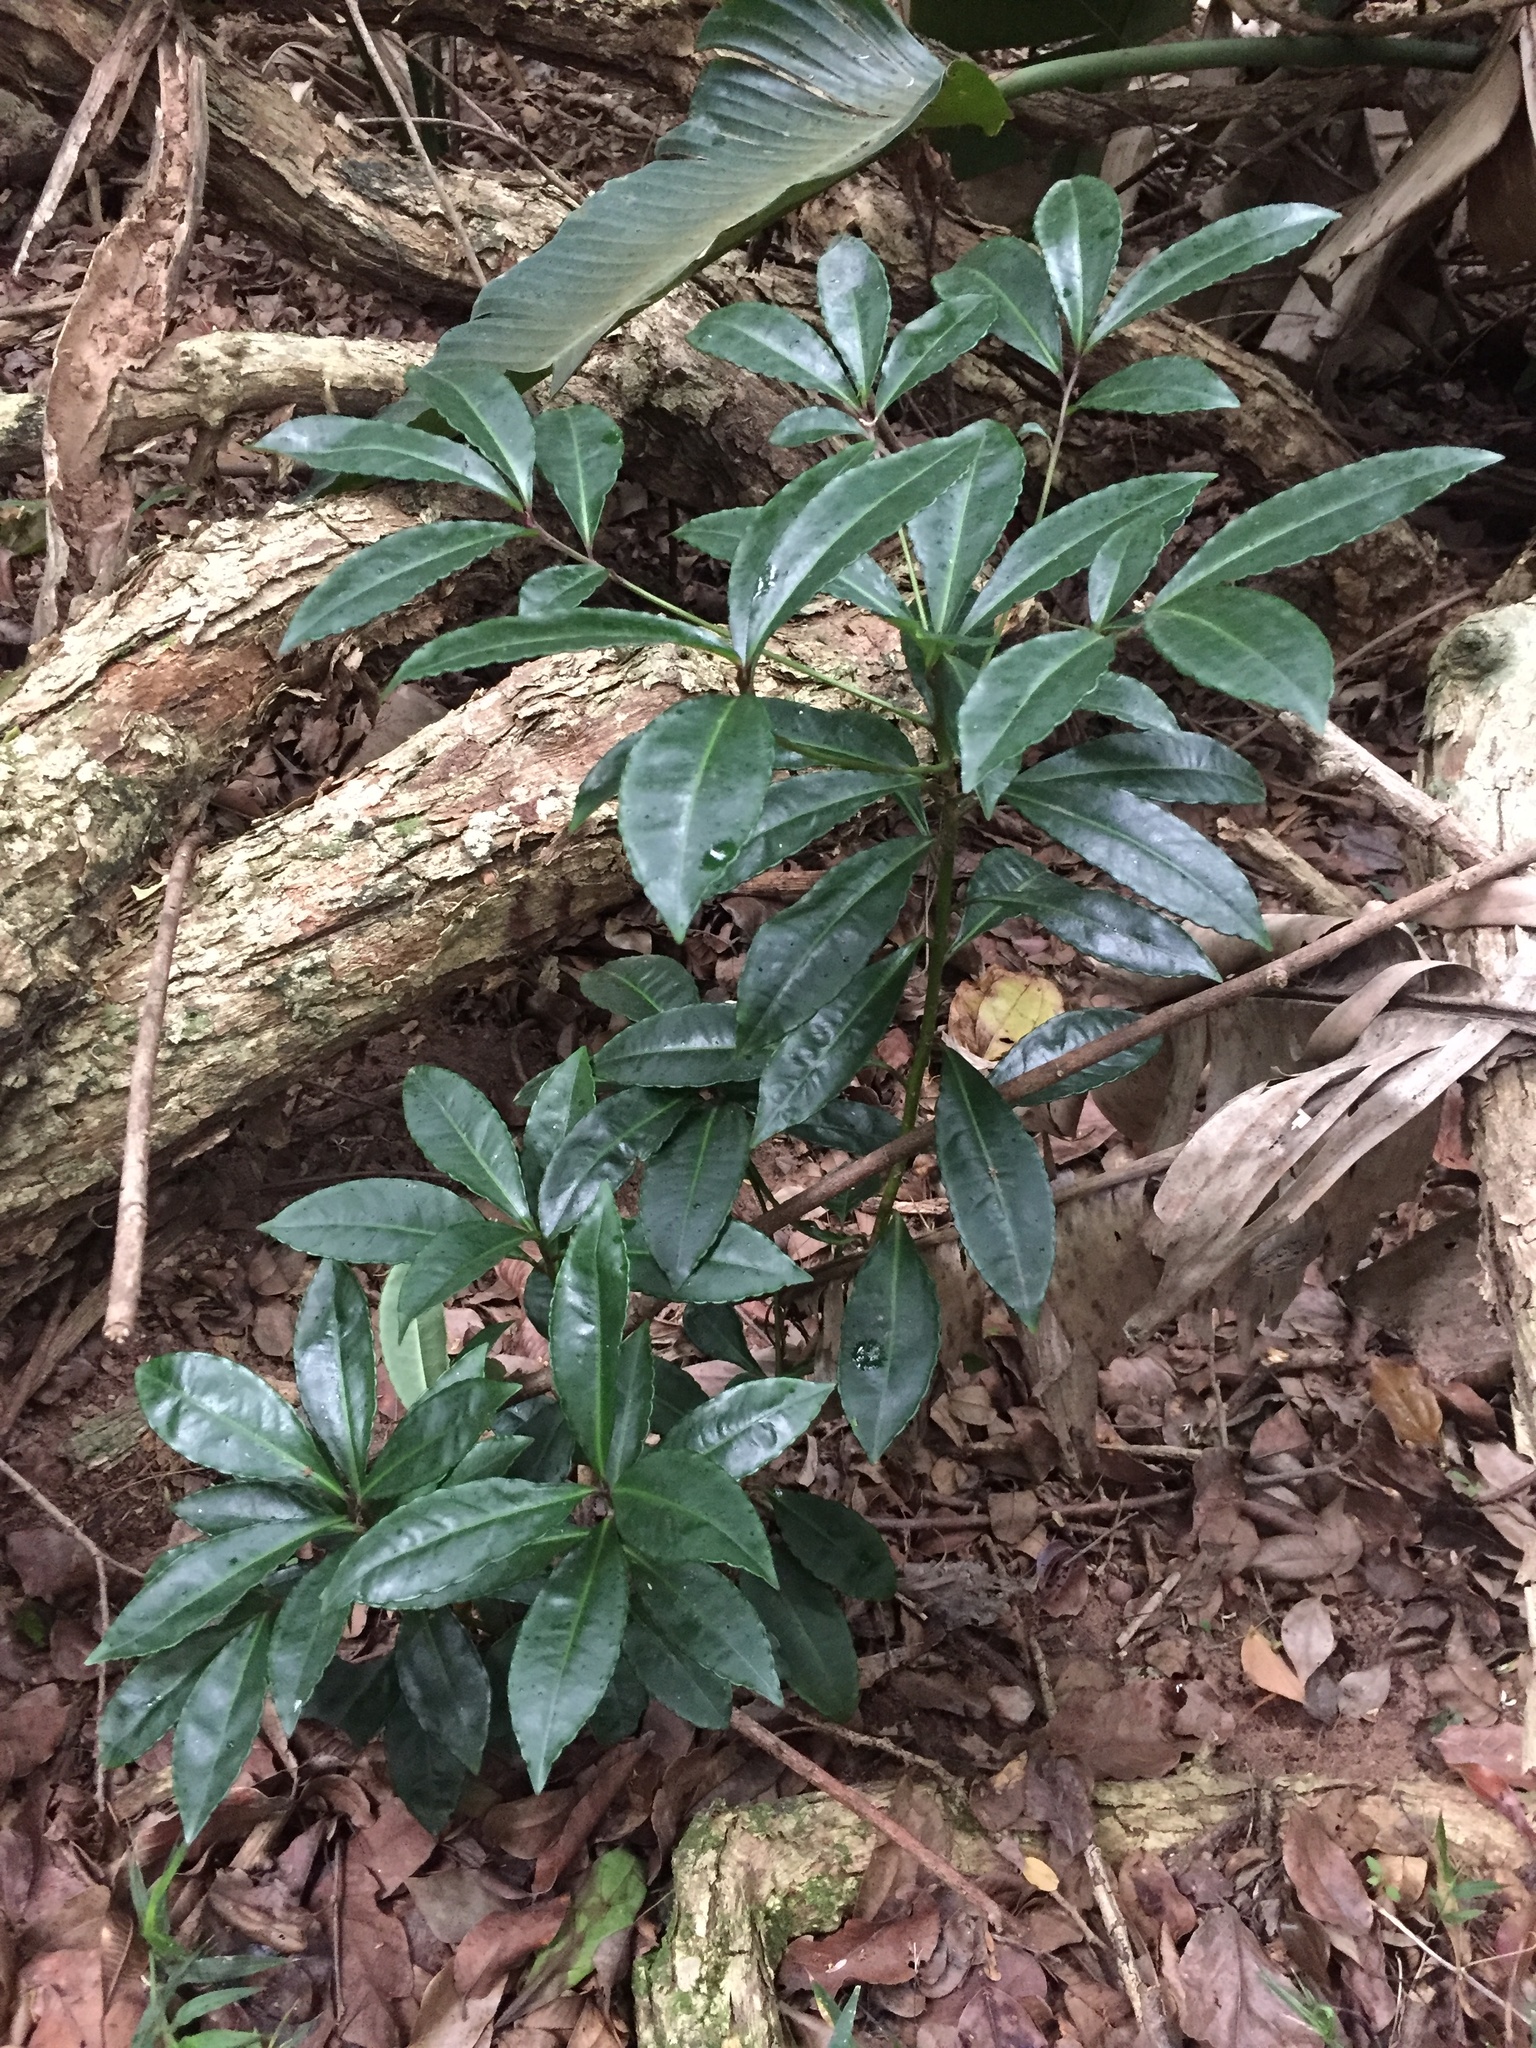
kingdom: Plantae
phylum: Tracheophyta
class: Magnoliopsida
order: Ericales
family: Primulaceae
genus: Ardisia
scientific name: Ardisia crenata
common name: Hen's eyes
